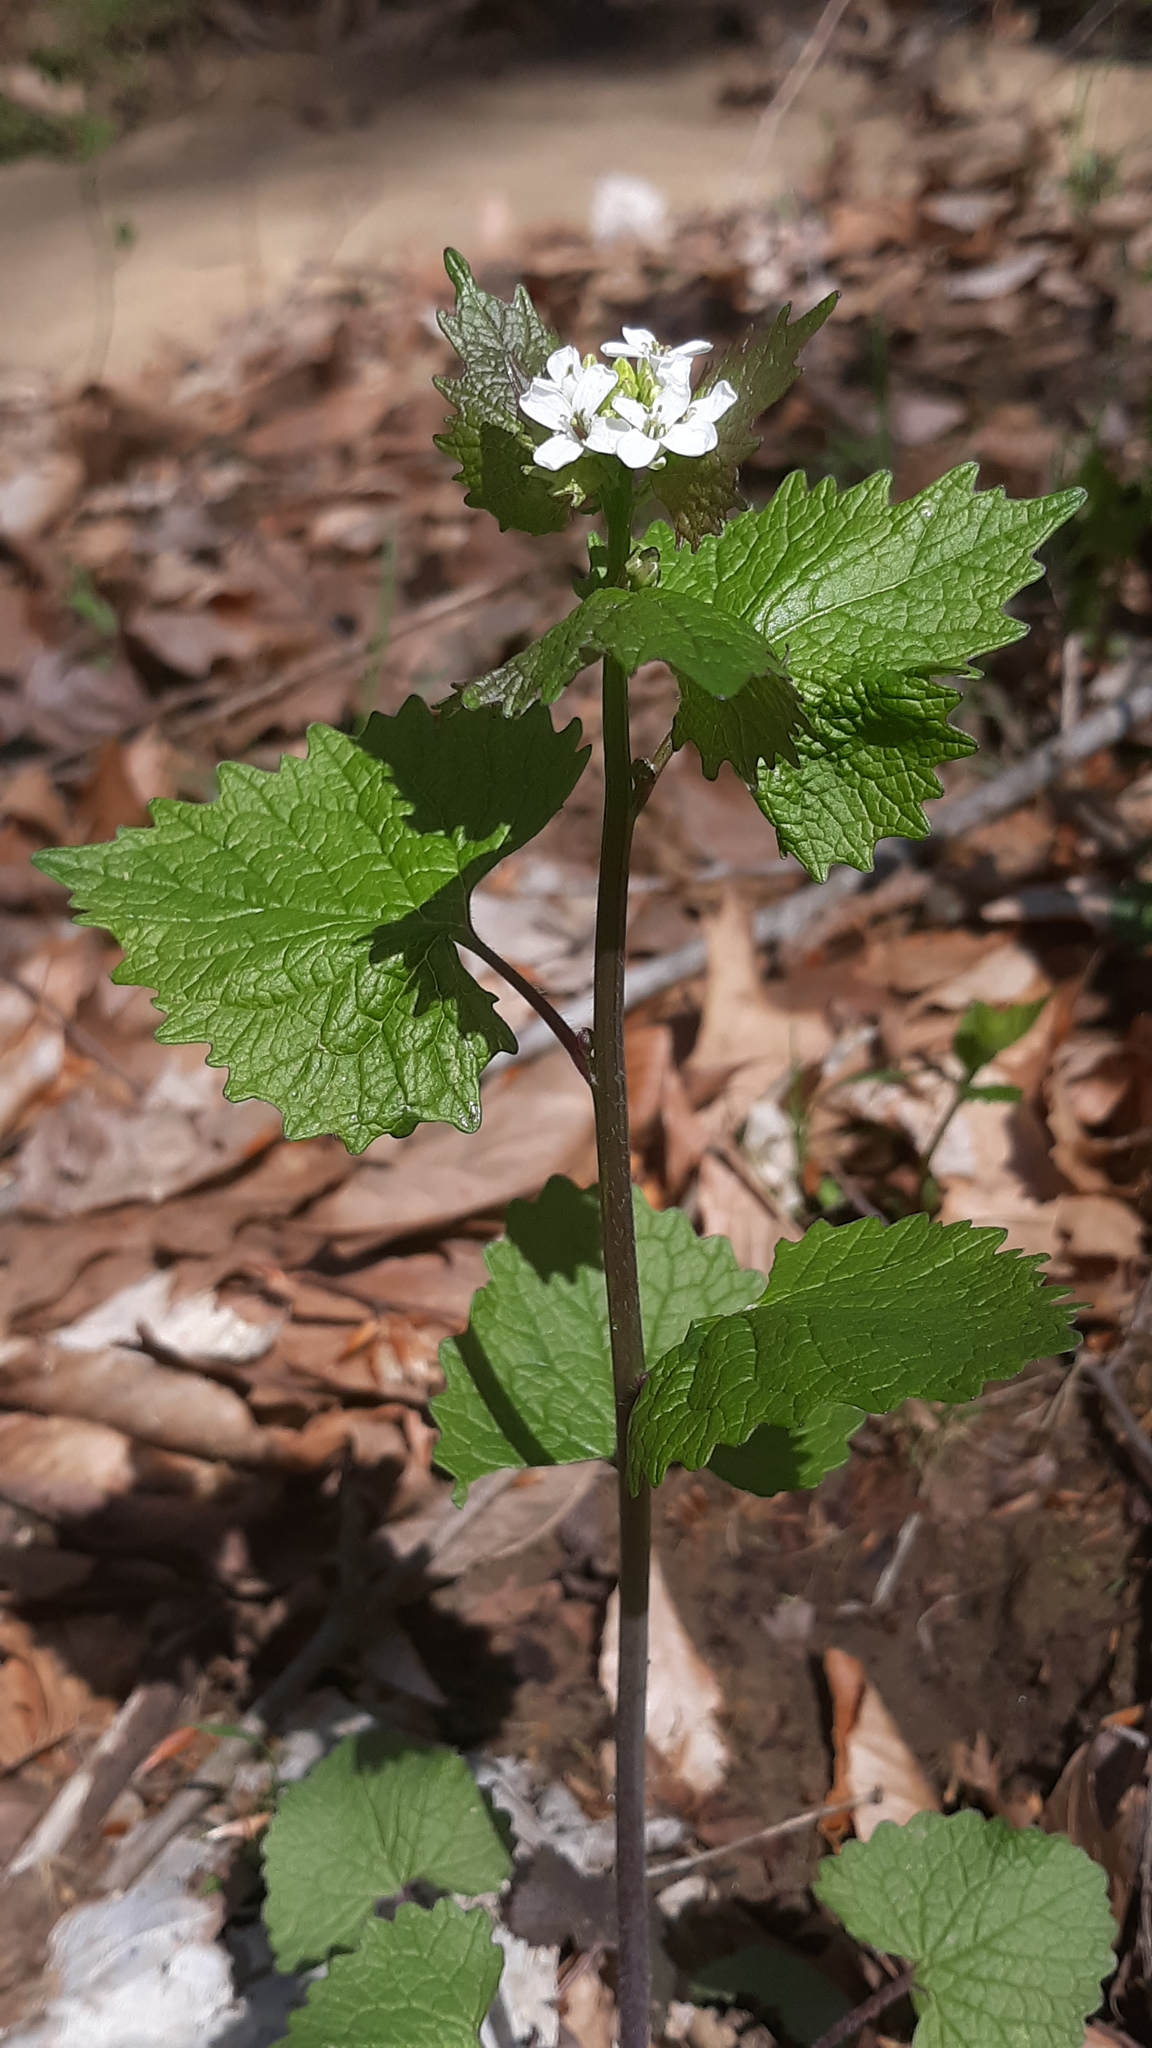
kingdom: Plantae
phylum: Tracheophyta
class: Magnoliopsida
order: Brassicales
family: Brassicaceae
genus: Alliaria
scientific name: Alliaria petiolata
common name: Garlic mustard
